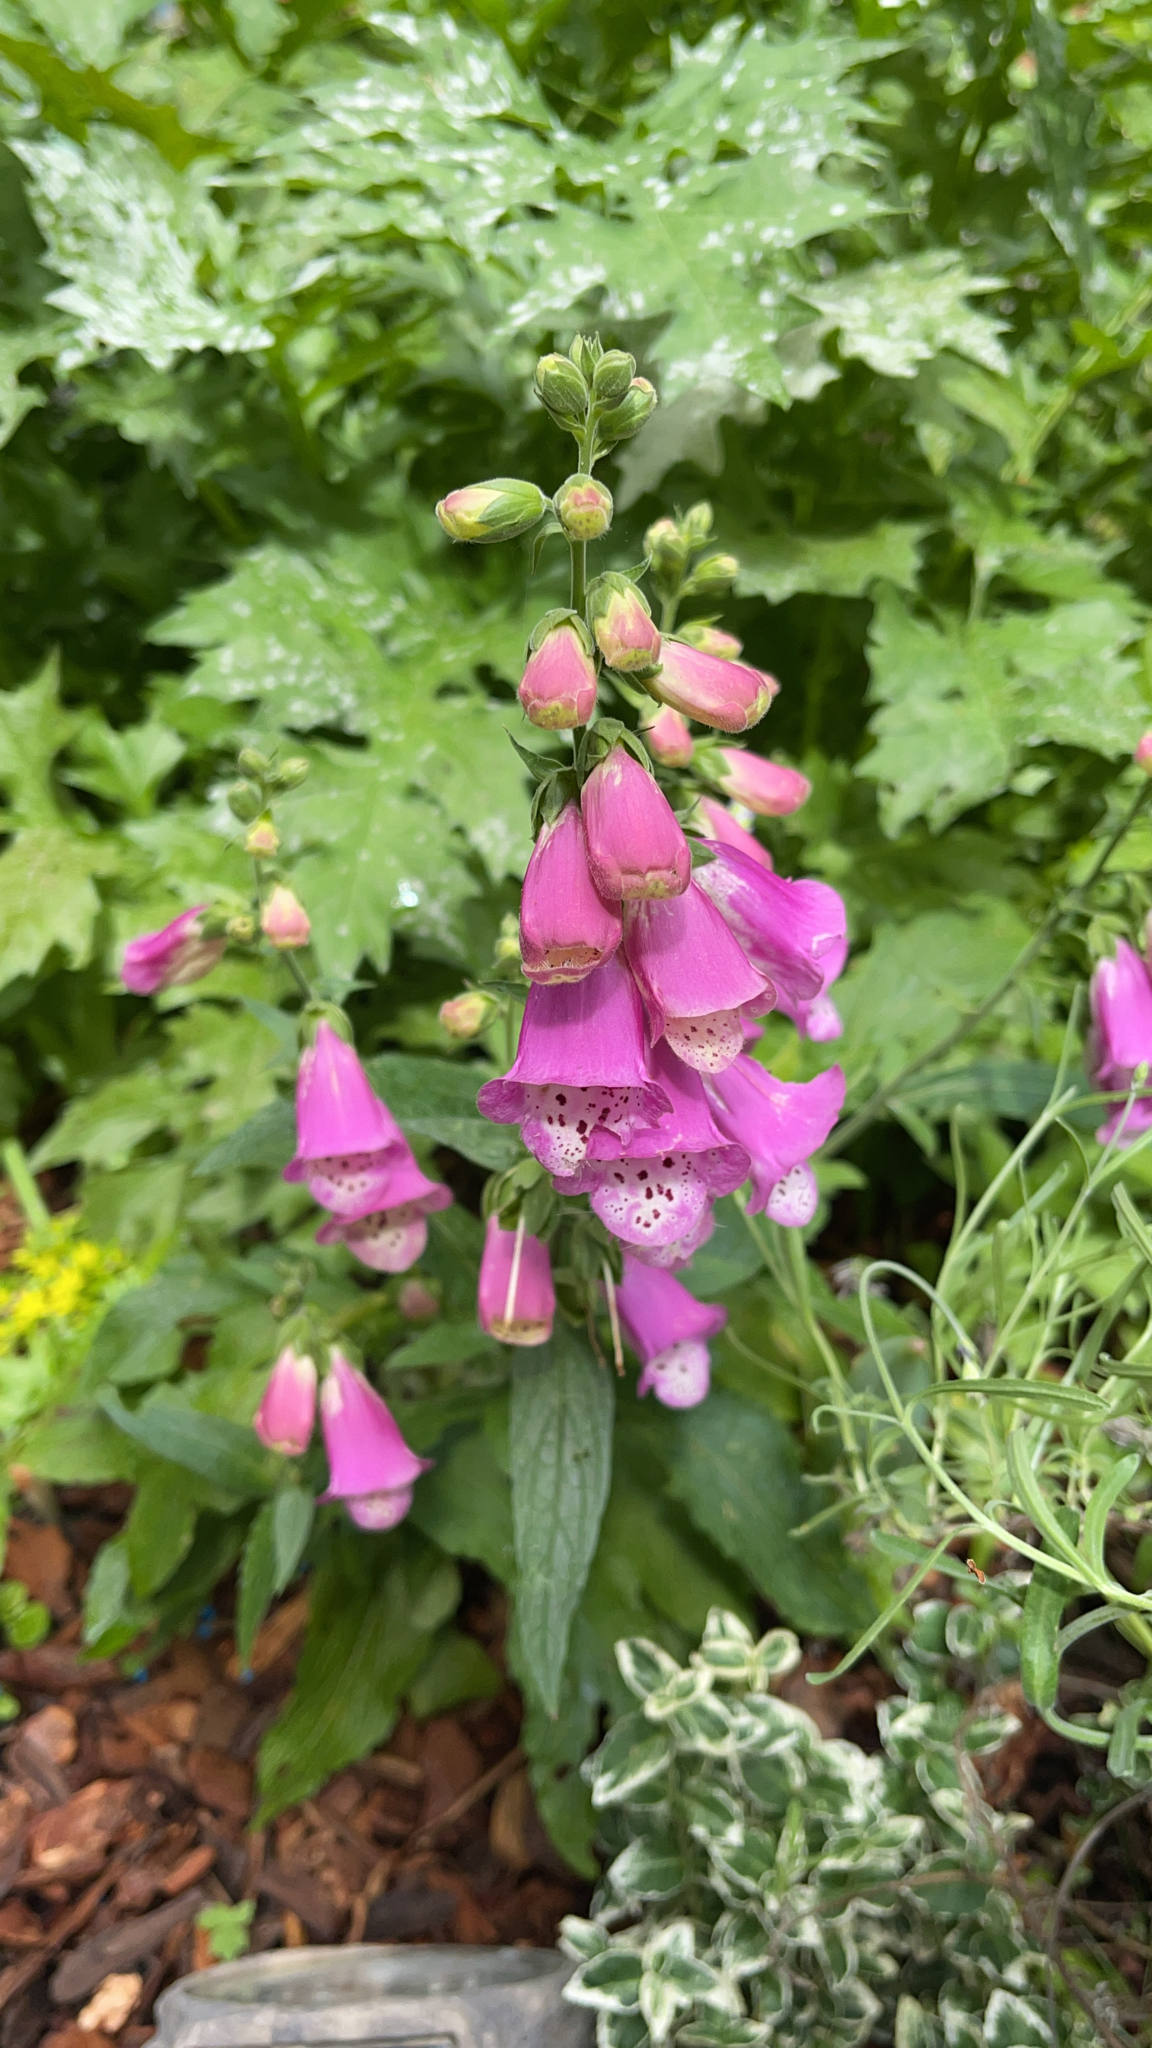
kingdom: Plantae
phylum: Tracheophyta
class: Magnoliopsida
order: Lamiales
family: Plantaginaceae
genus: Digitalis
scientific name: Digitalis purpurea
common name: Foxglove
